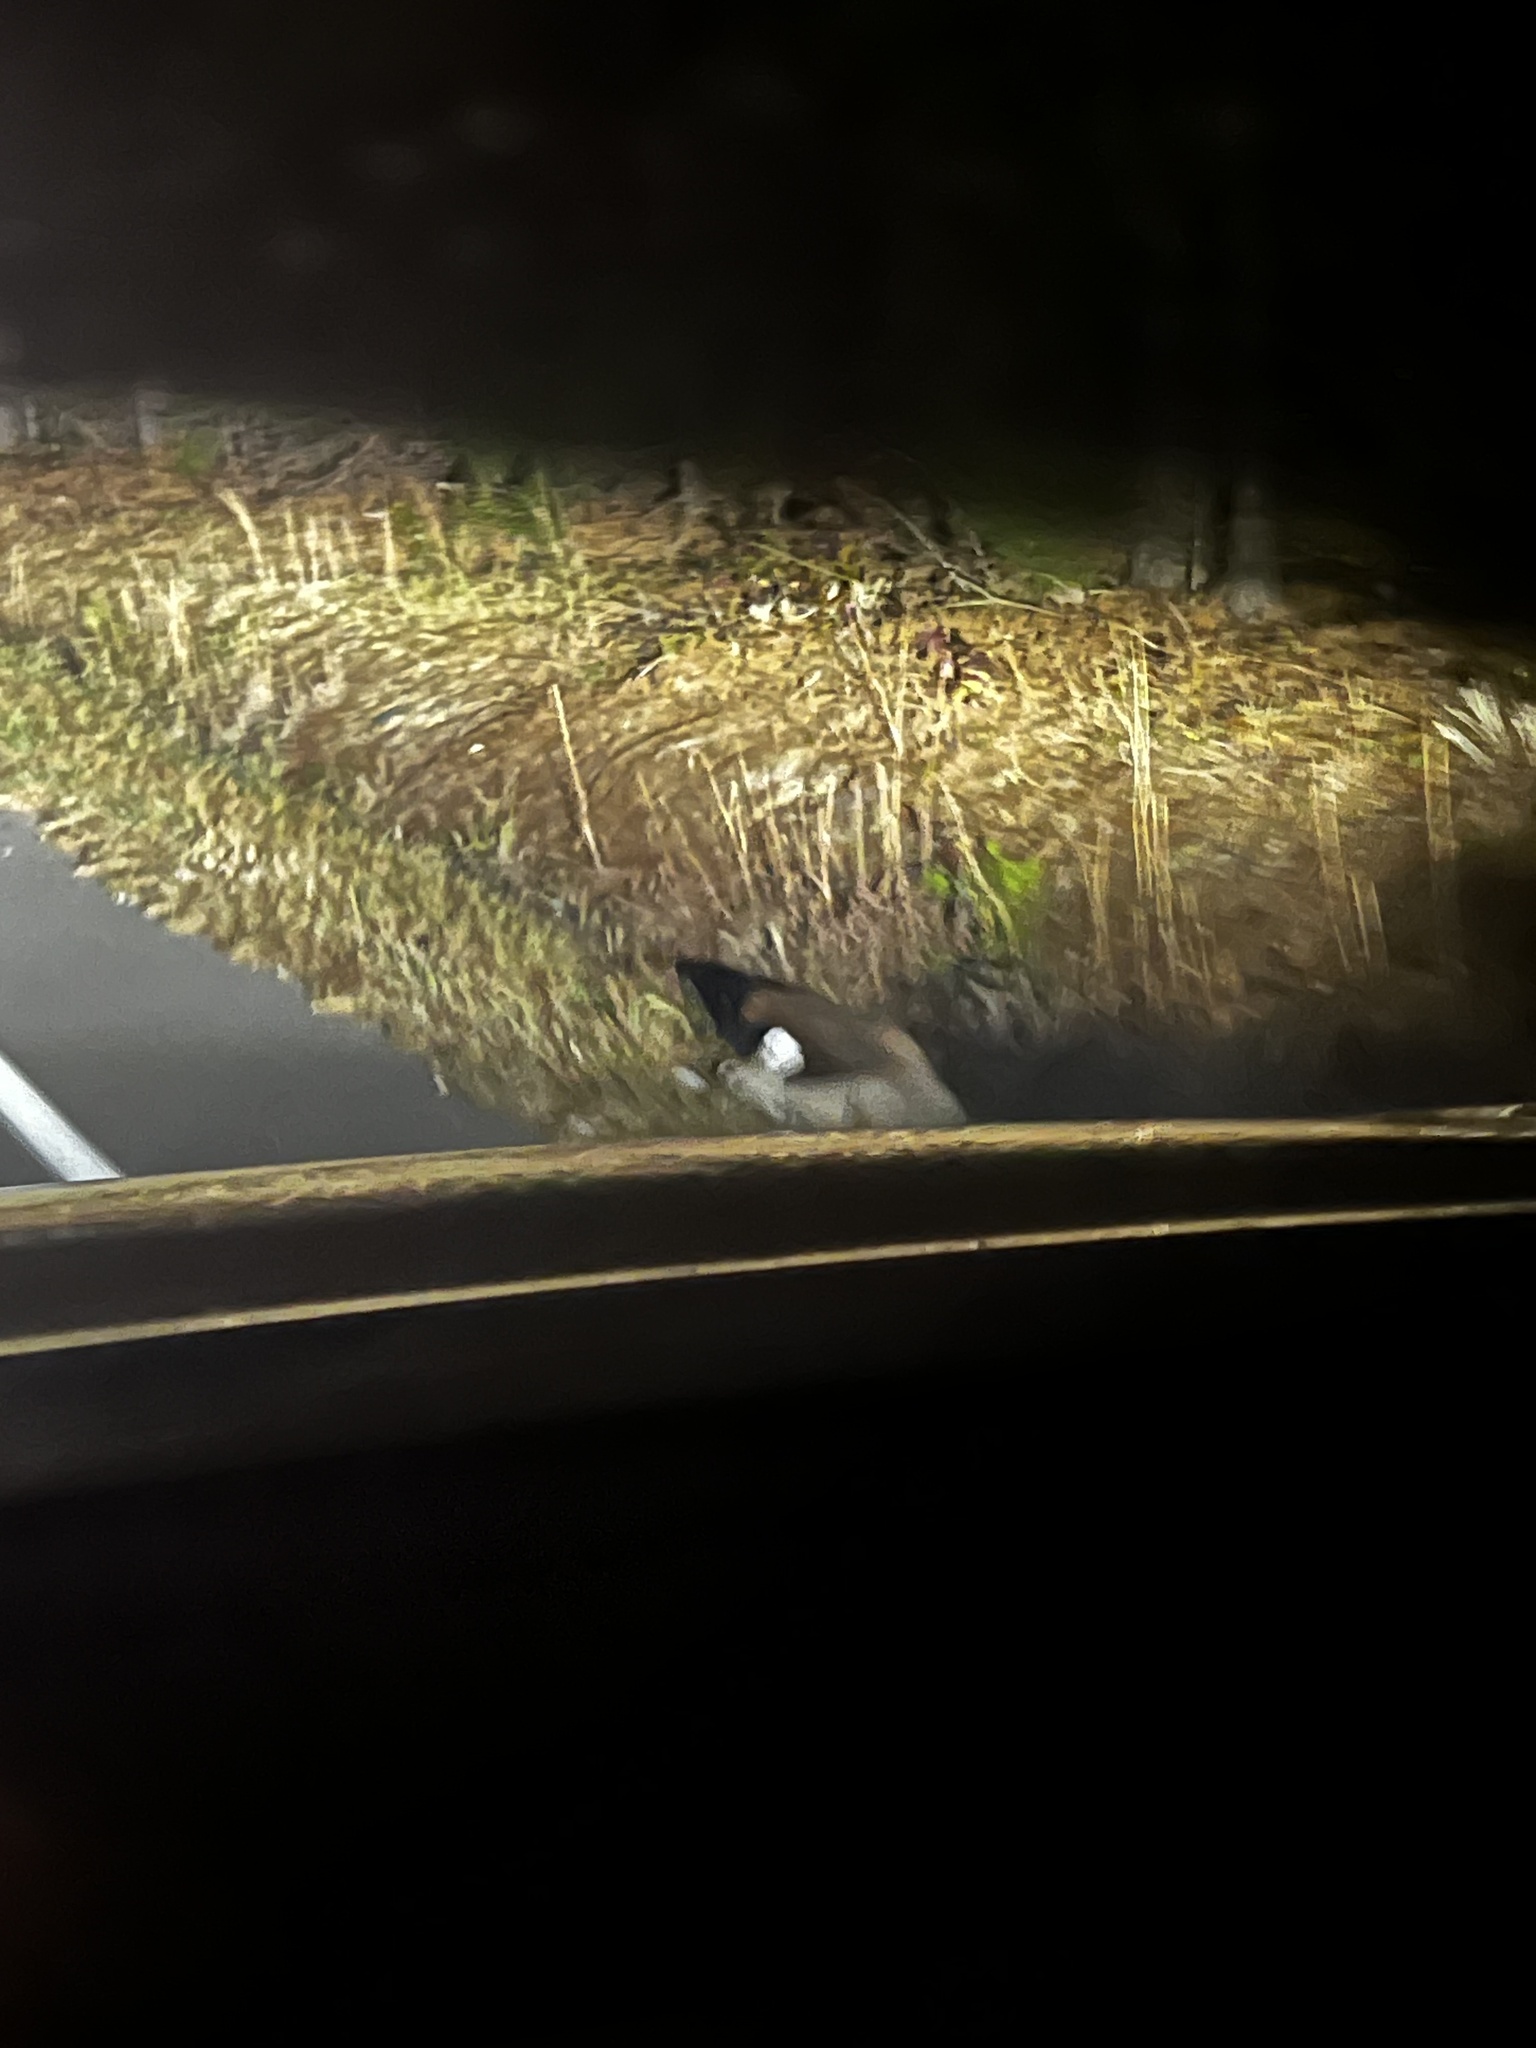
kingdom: Animalia
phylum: Chordata
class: Mammalia
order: Artiodactyla
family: Cervidae
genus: Odocoileus
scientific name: Odocoileus virginianus
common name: White-tailed deer
